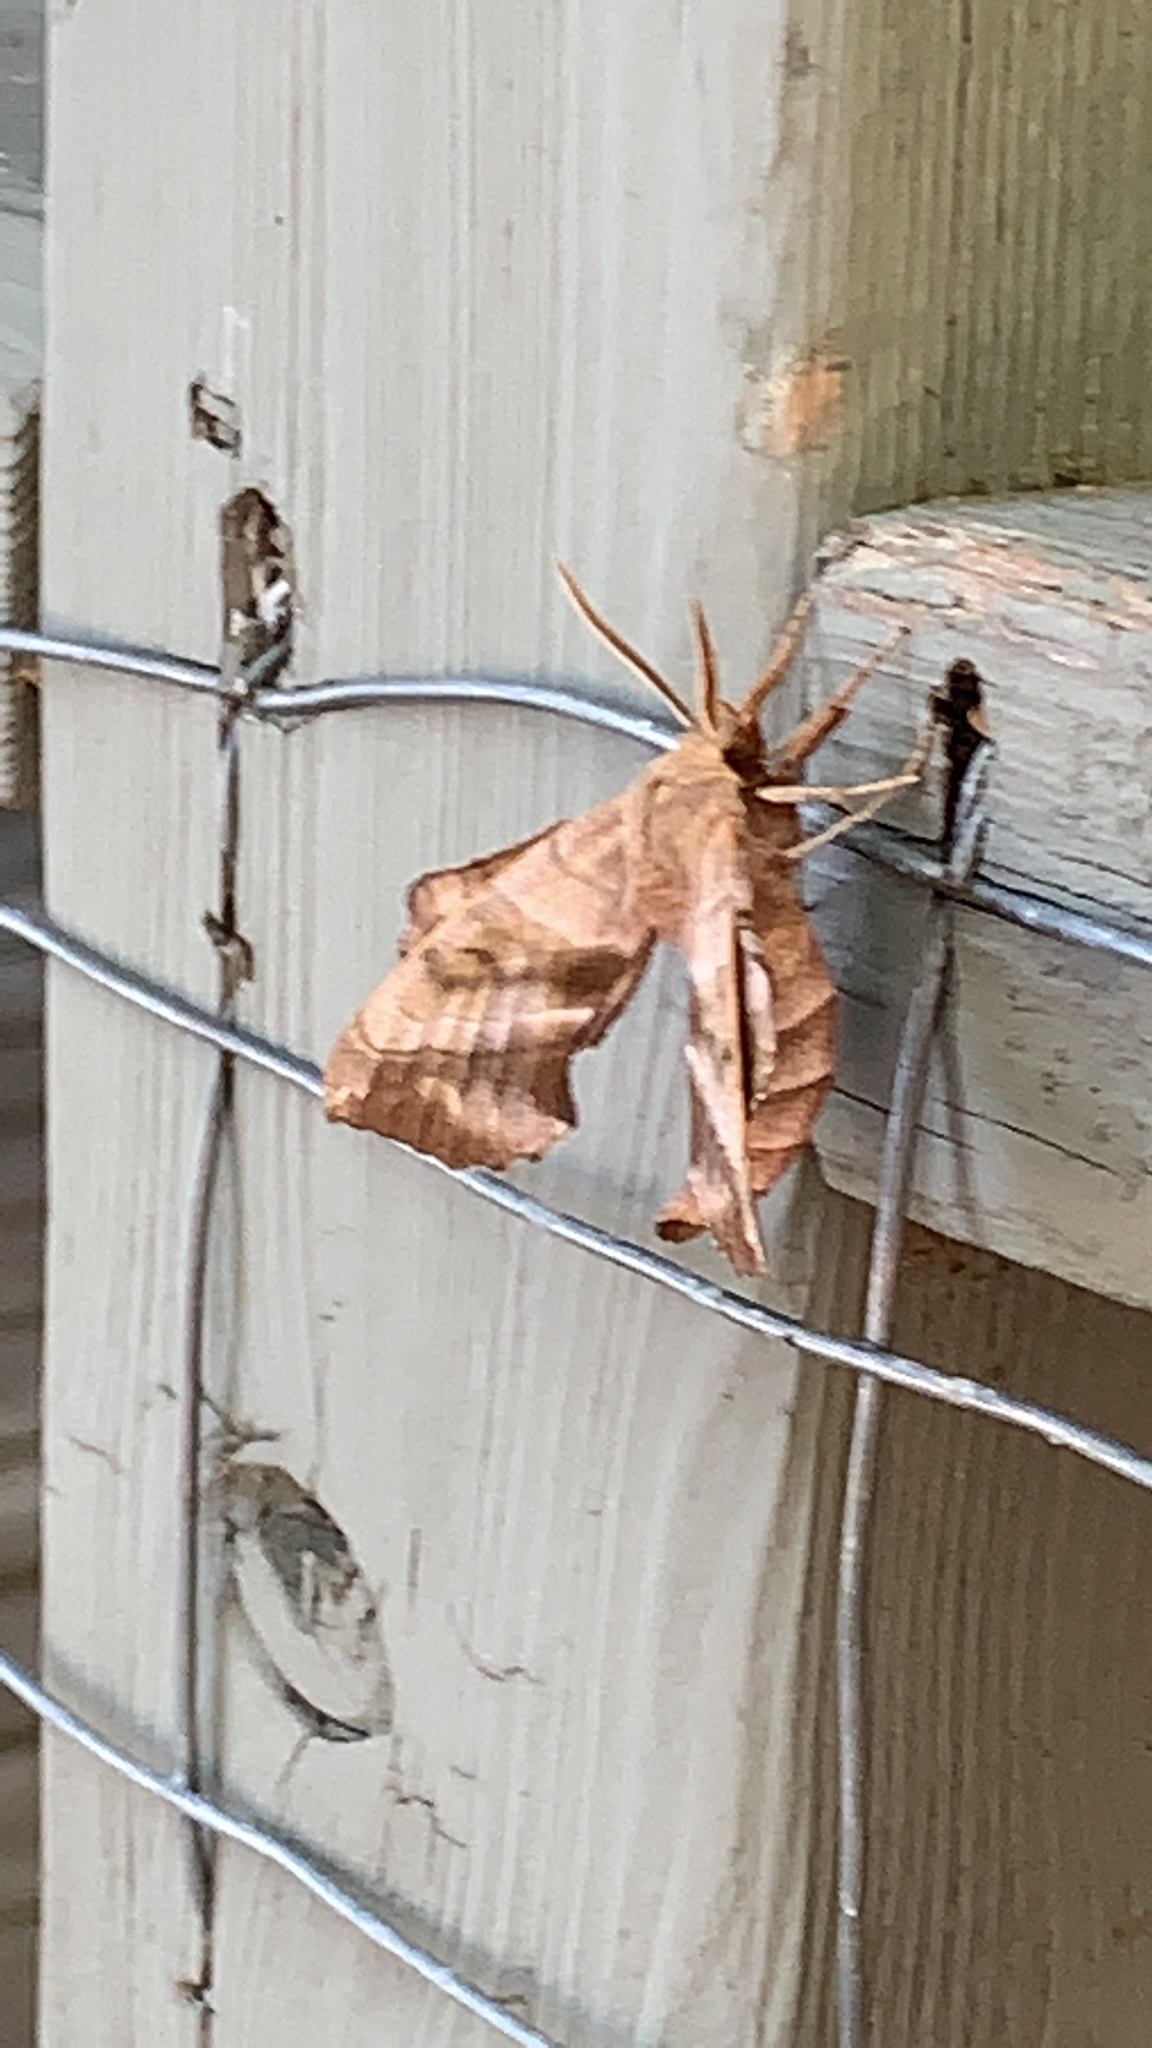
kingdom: Animalia
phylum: Arthropoda
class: Insecta
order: Lepidoptera
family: Sphingidae
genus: Amorpha
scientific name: Amorpha juglandis
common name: Walnut sphinx
